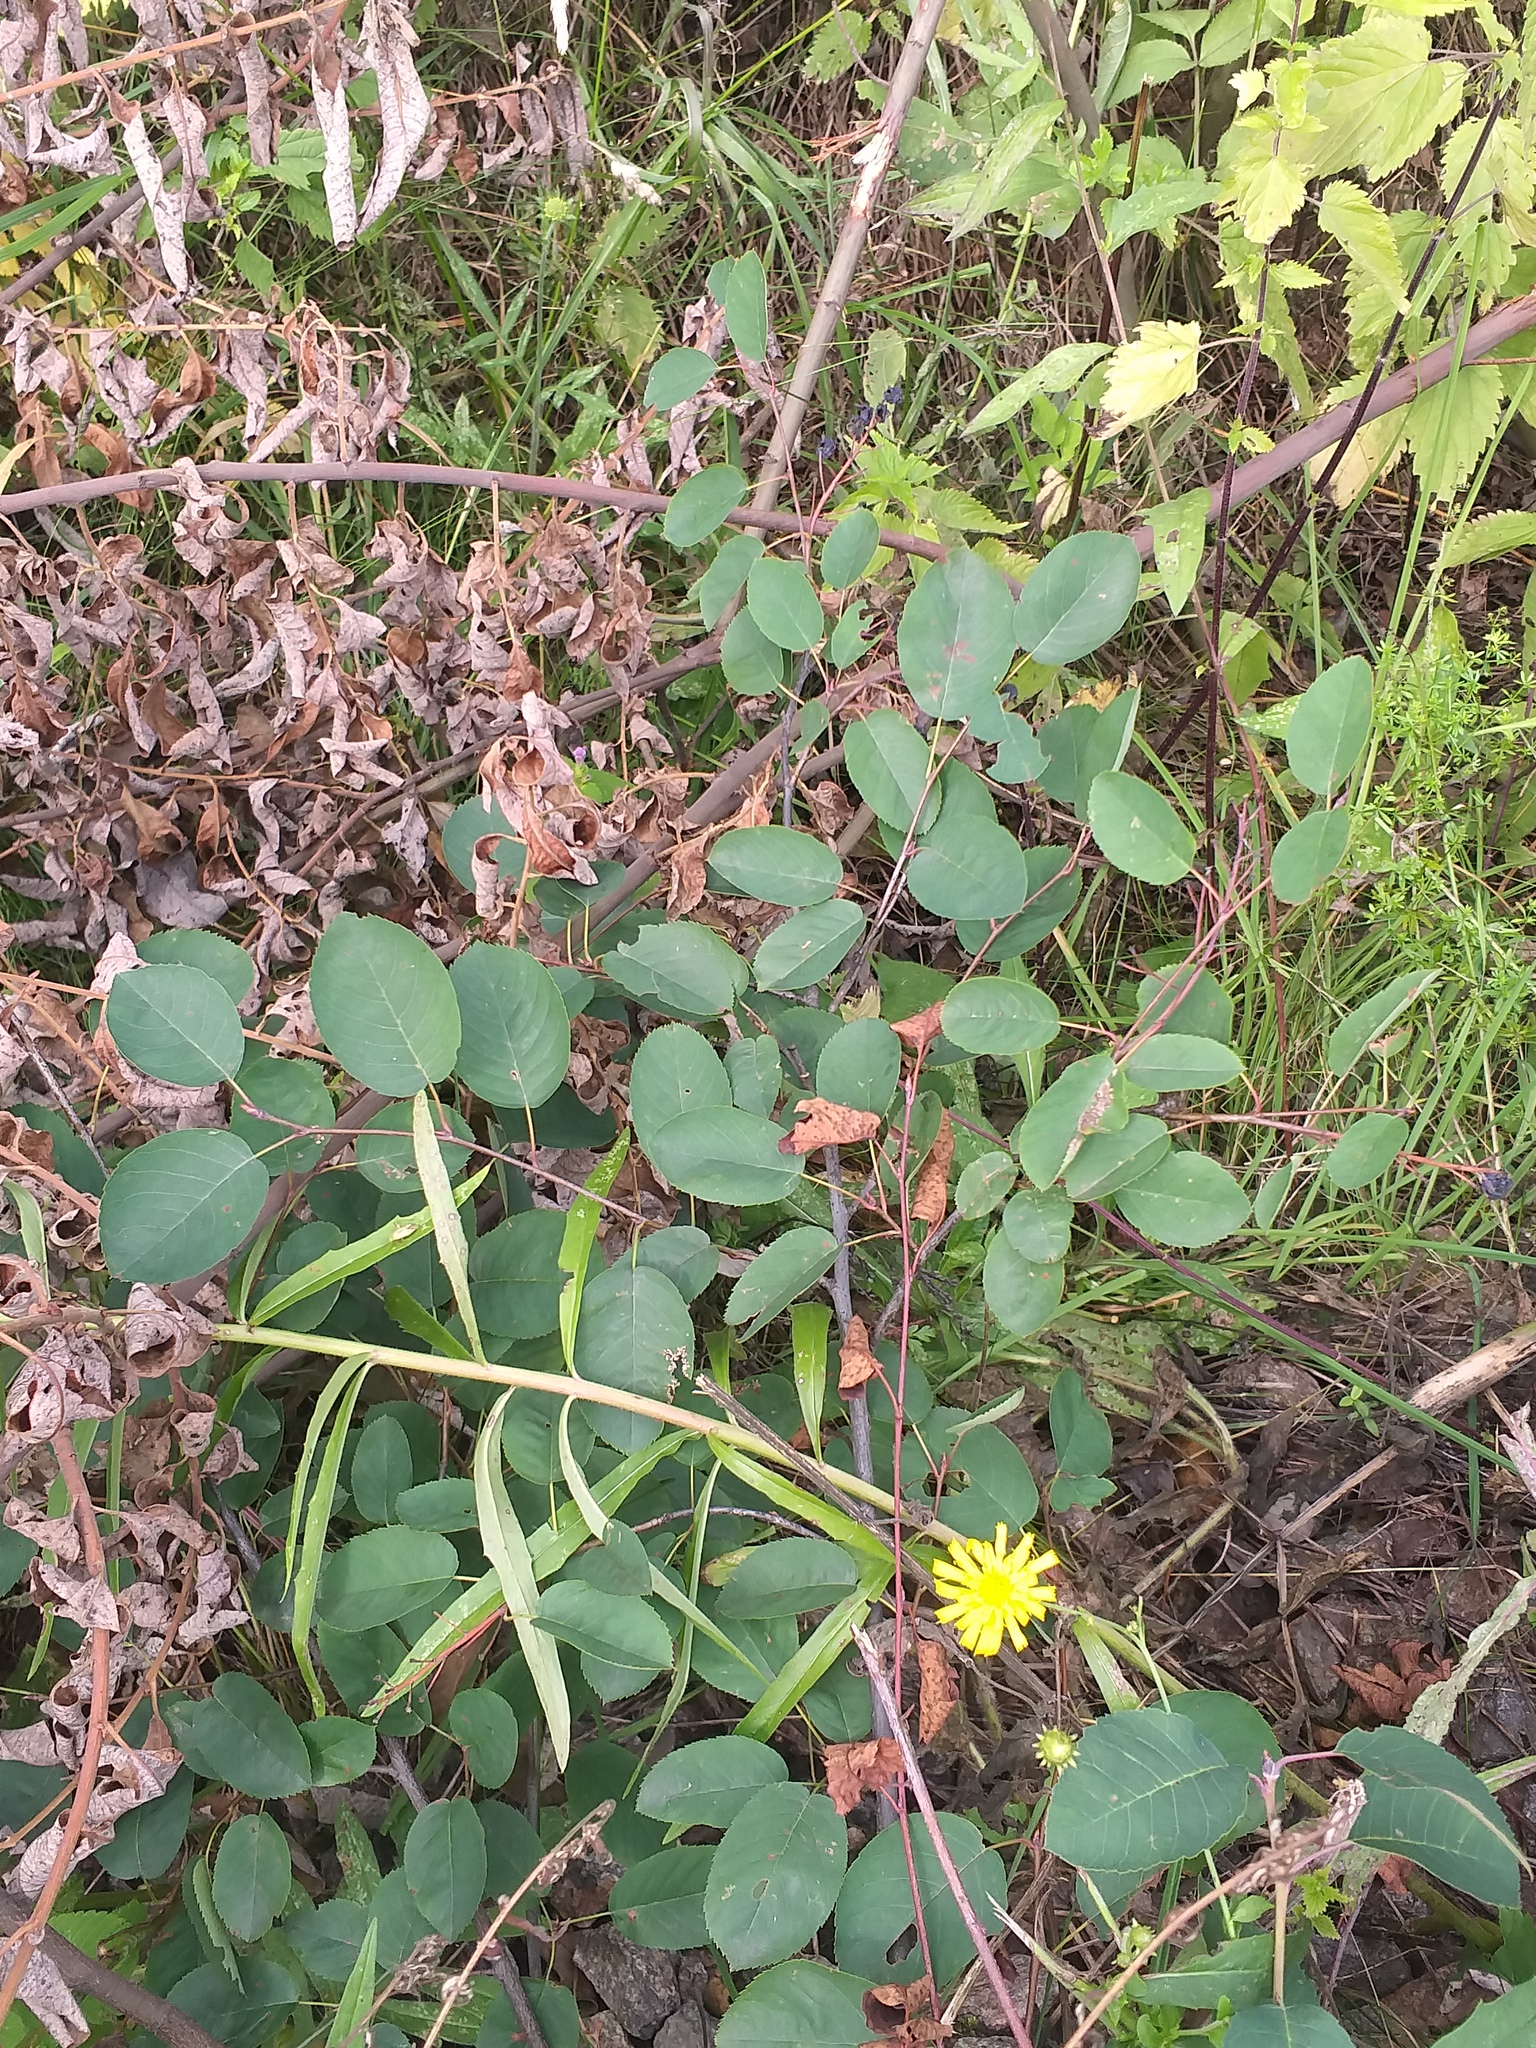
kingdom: Plantae
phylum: Tracheophyta
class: Magnoliopsida
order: Rosales
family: Rosaceae
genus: Amelanchier
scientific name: Amelanchier
